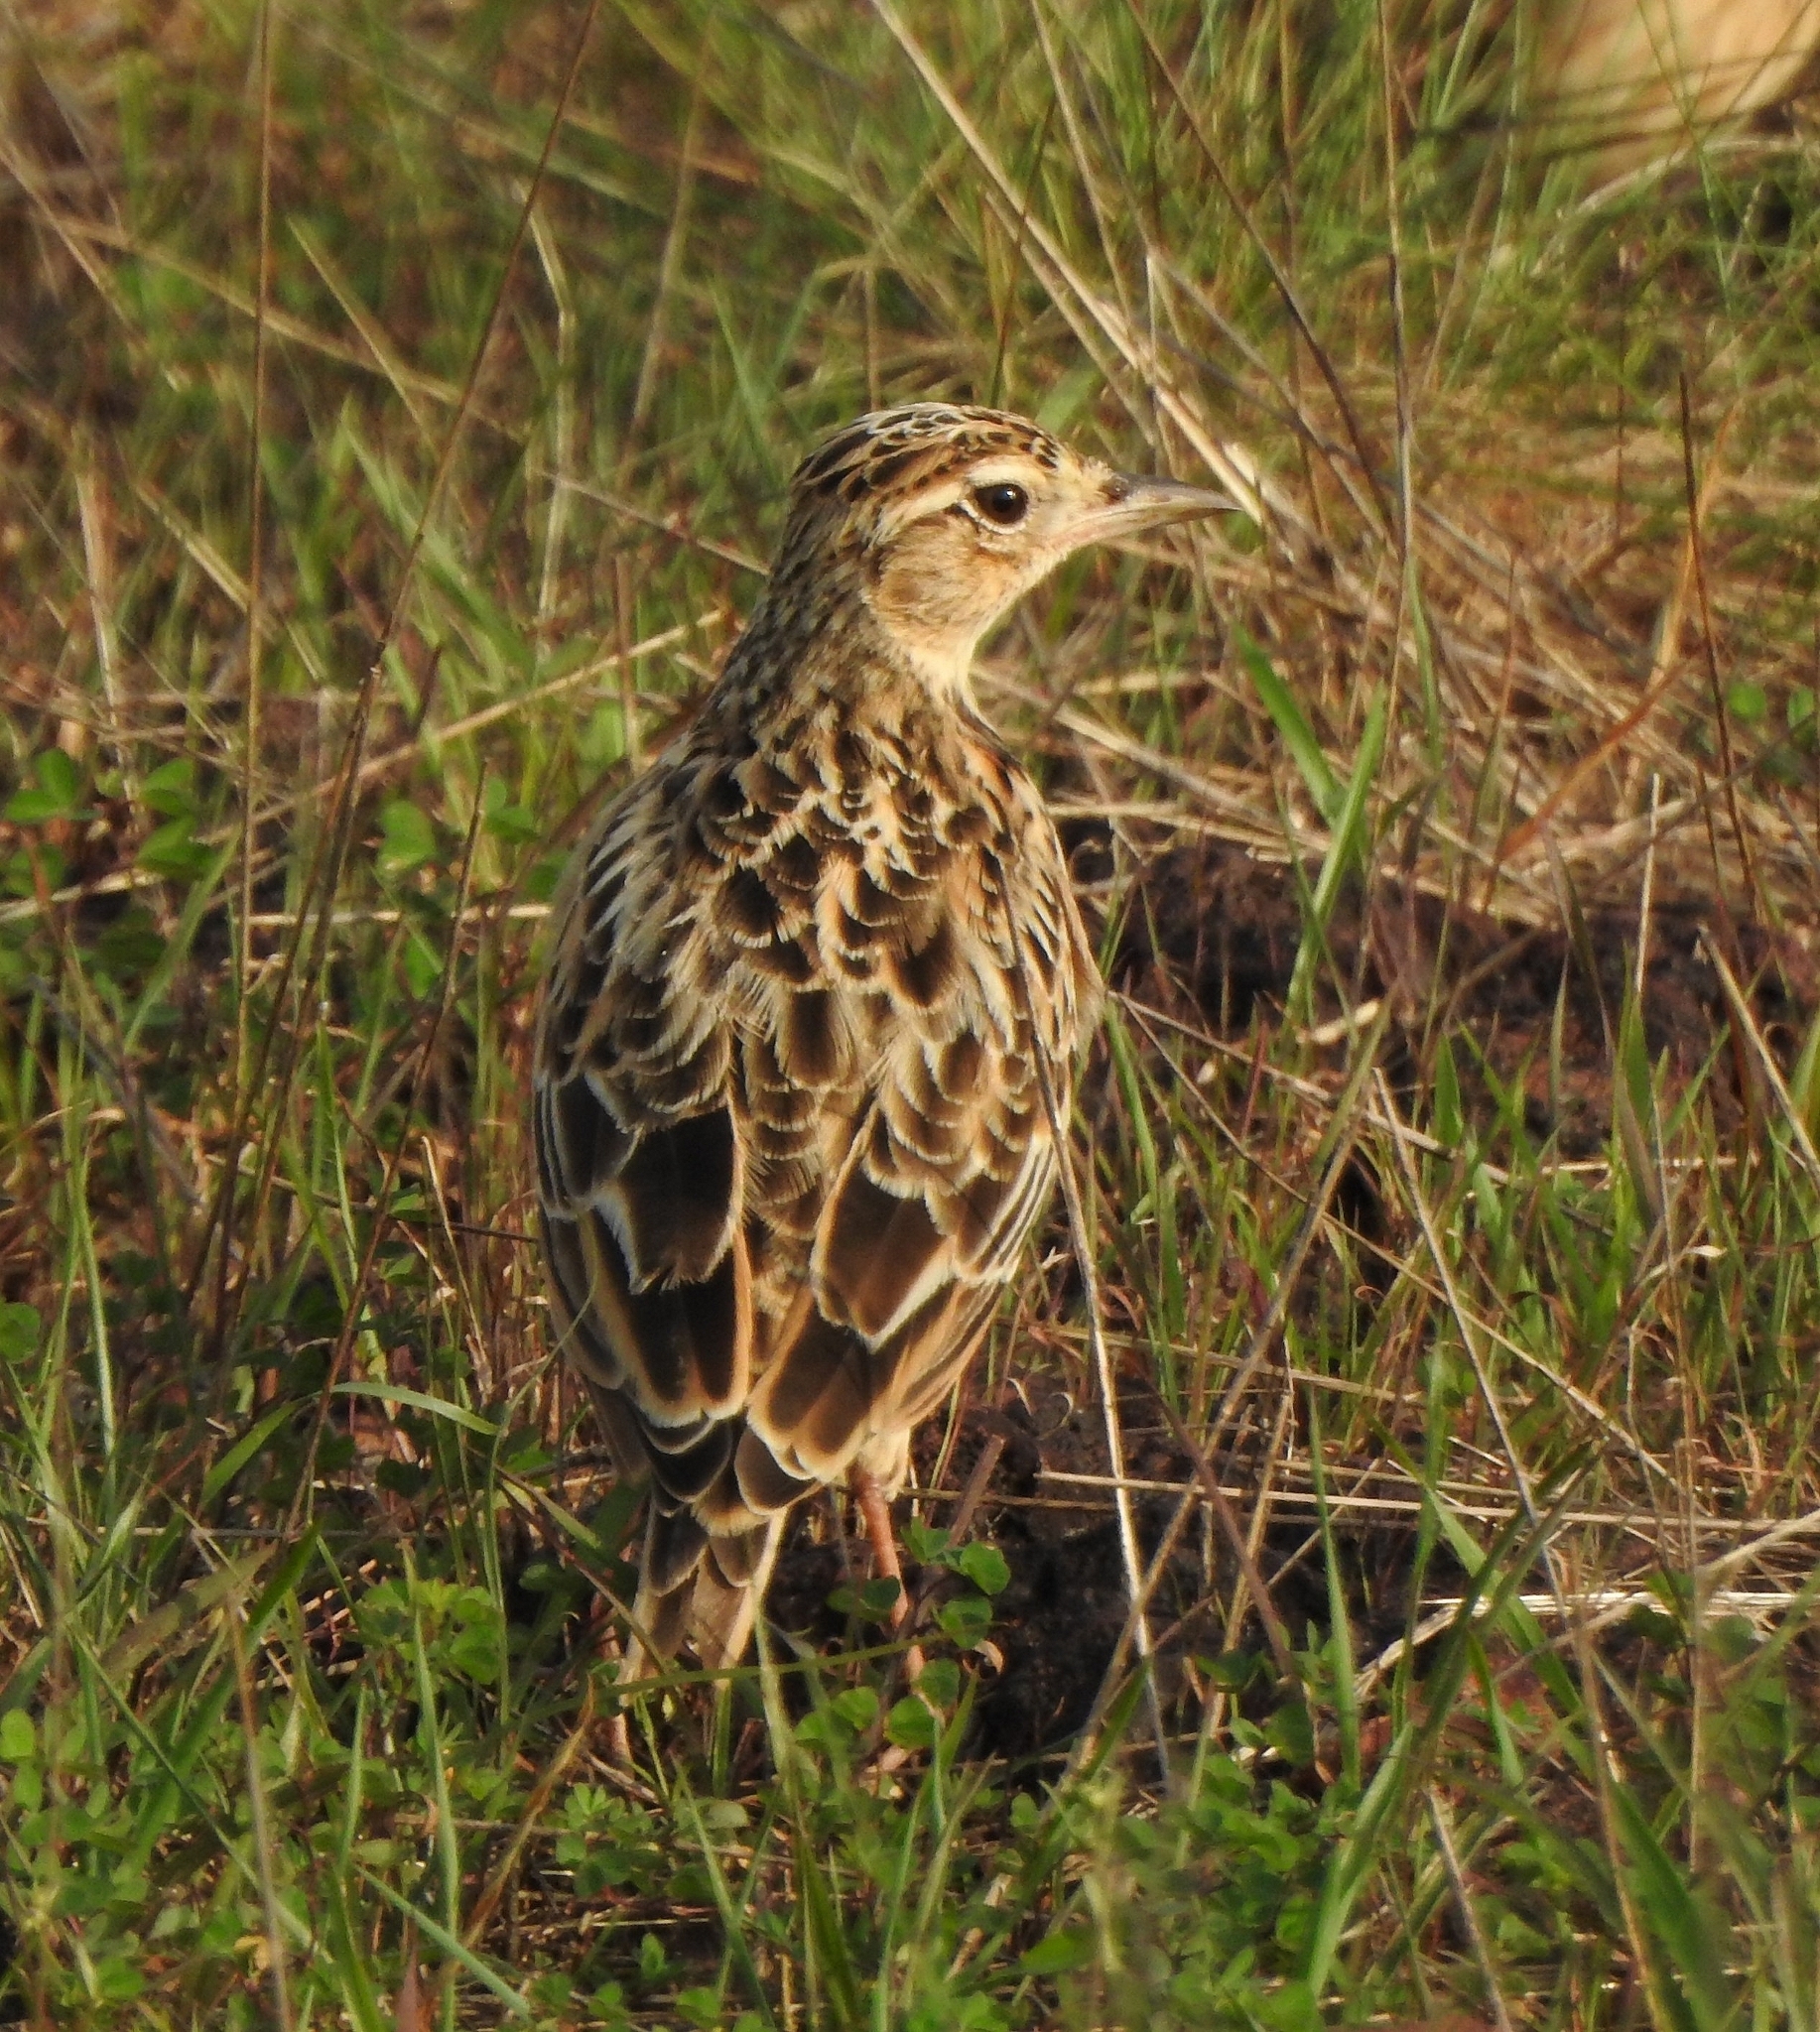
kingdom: Animalia
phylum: Chordata
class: Aves
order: Passeriformes
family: Alaudidae
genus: Alauda
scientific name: Alauda gulgula
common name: Oriental skylark
